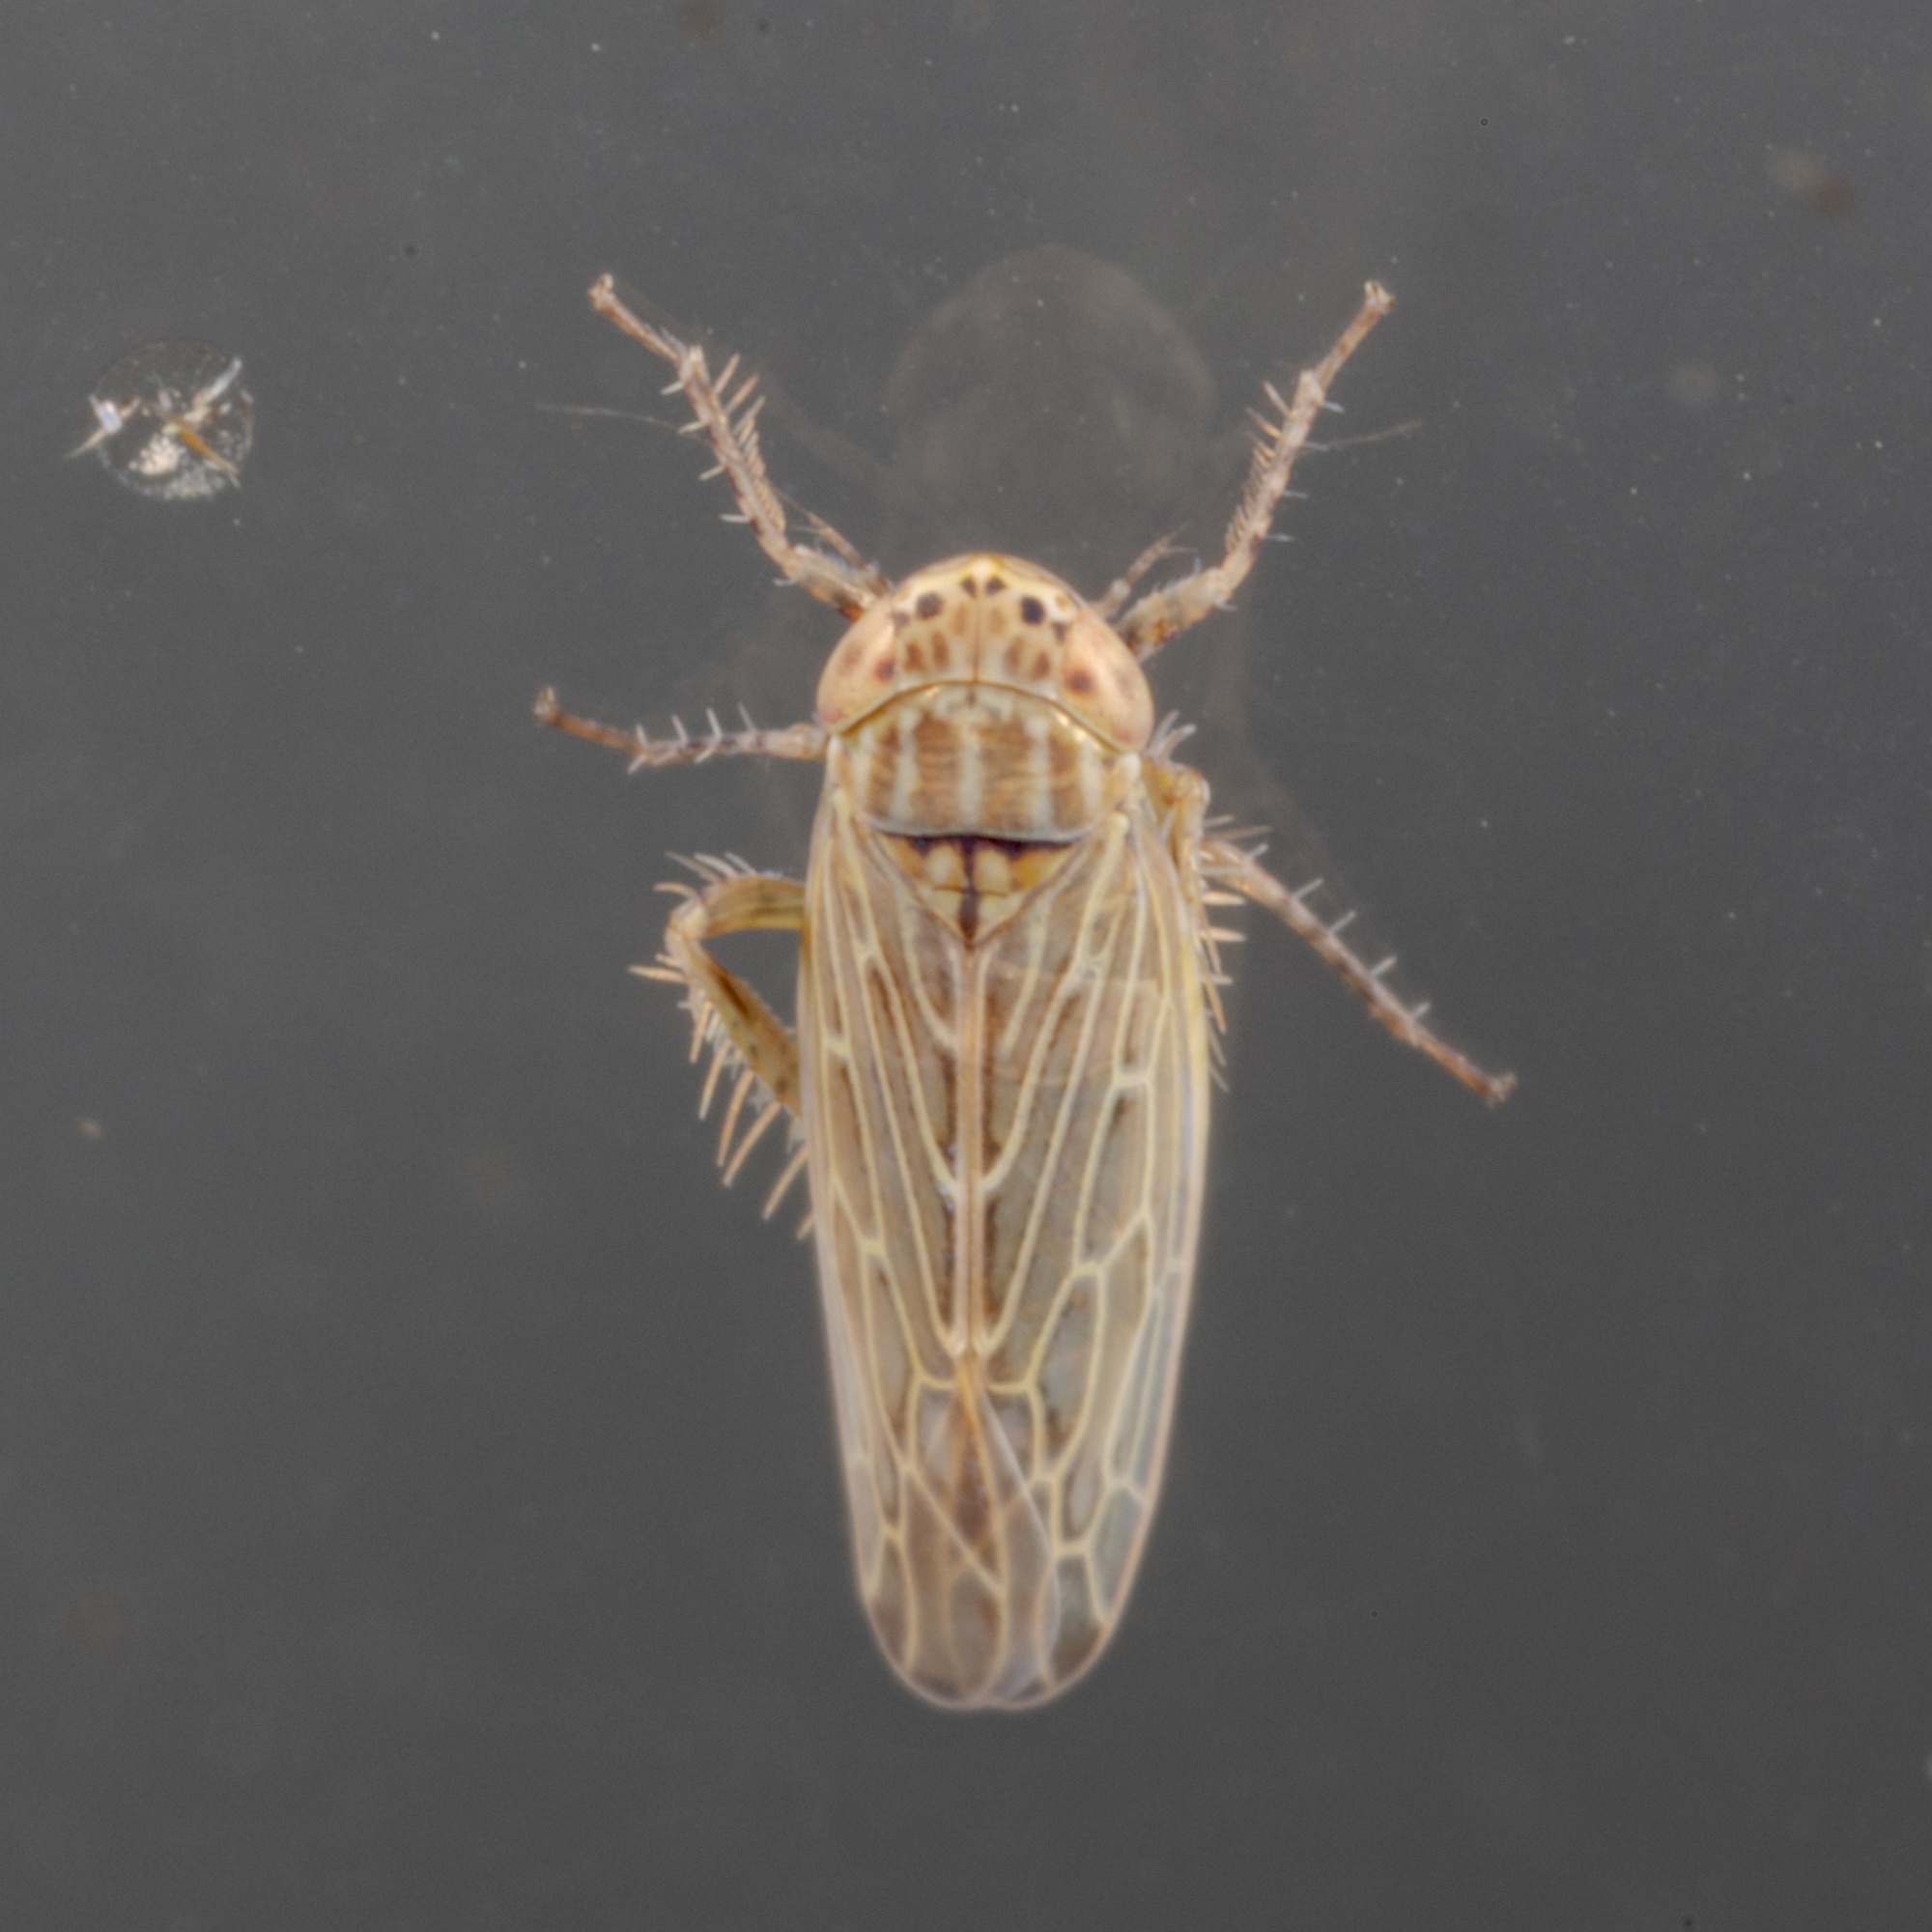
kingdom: Animalia
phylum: Arthropoda
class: Insecta
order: Hemiptera
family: Cicadellidae
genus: Graminella
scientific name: Graminella sonora
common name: Lesser lawn leafhopper
